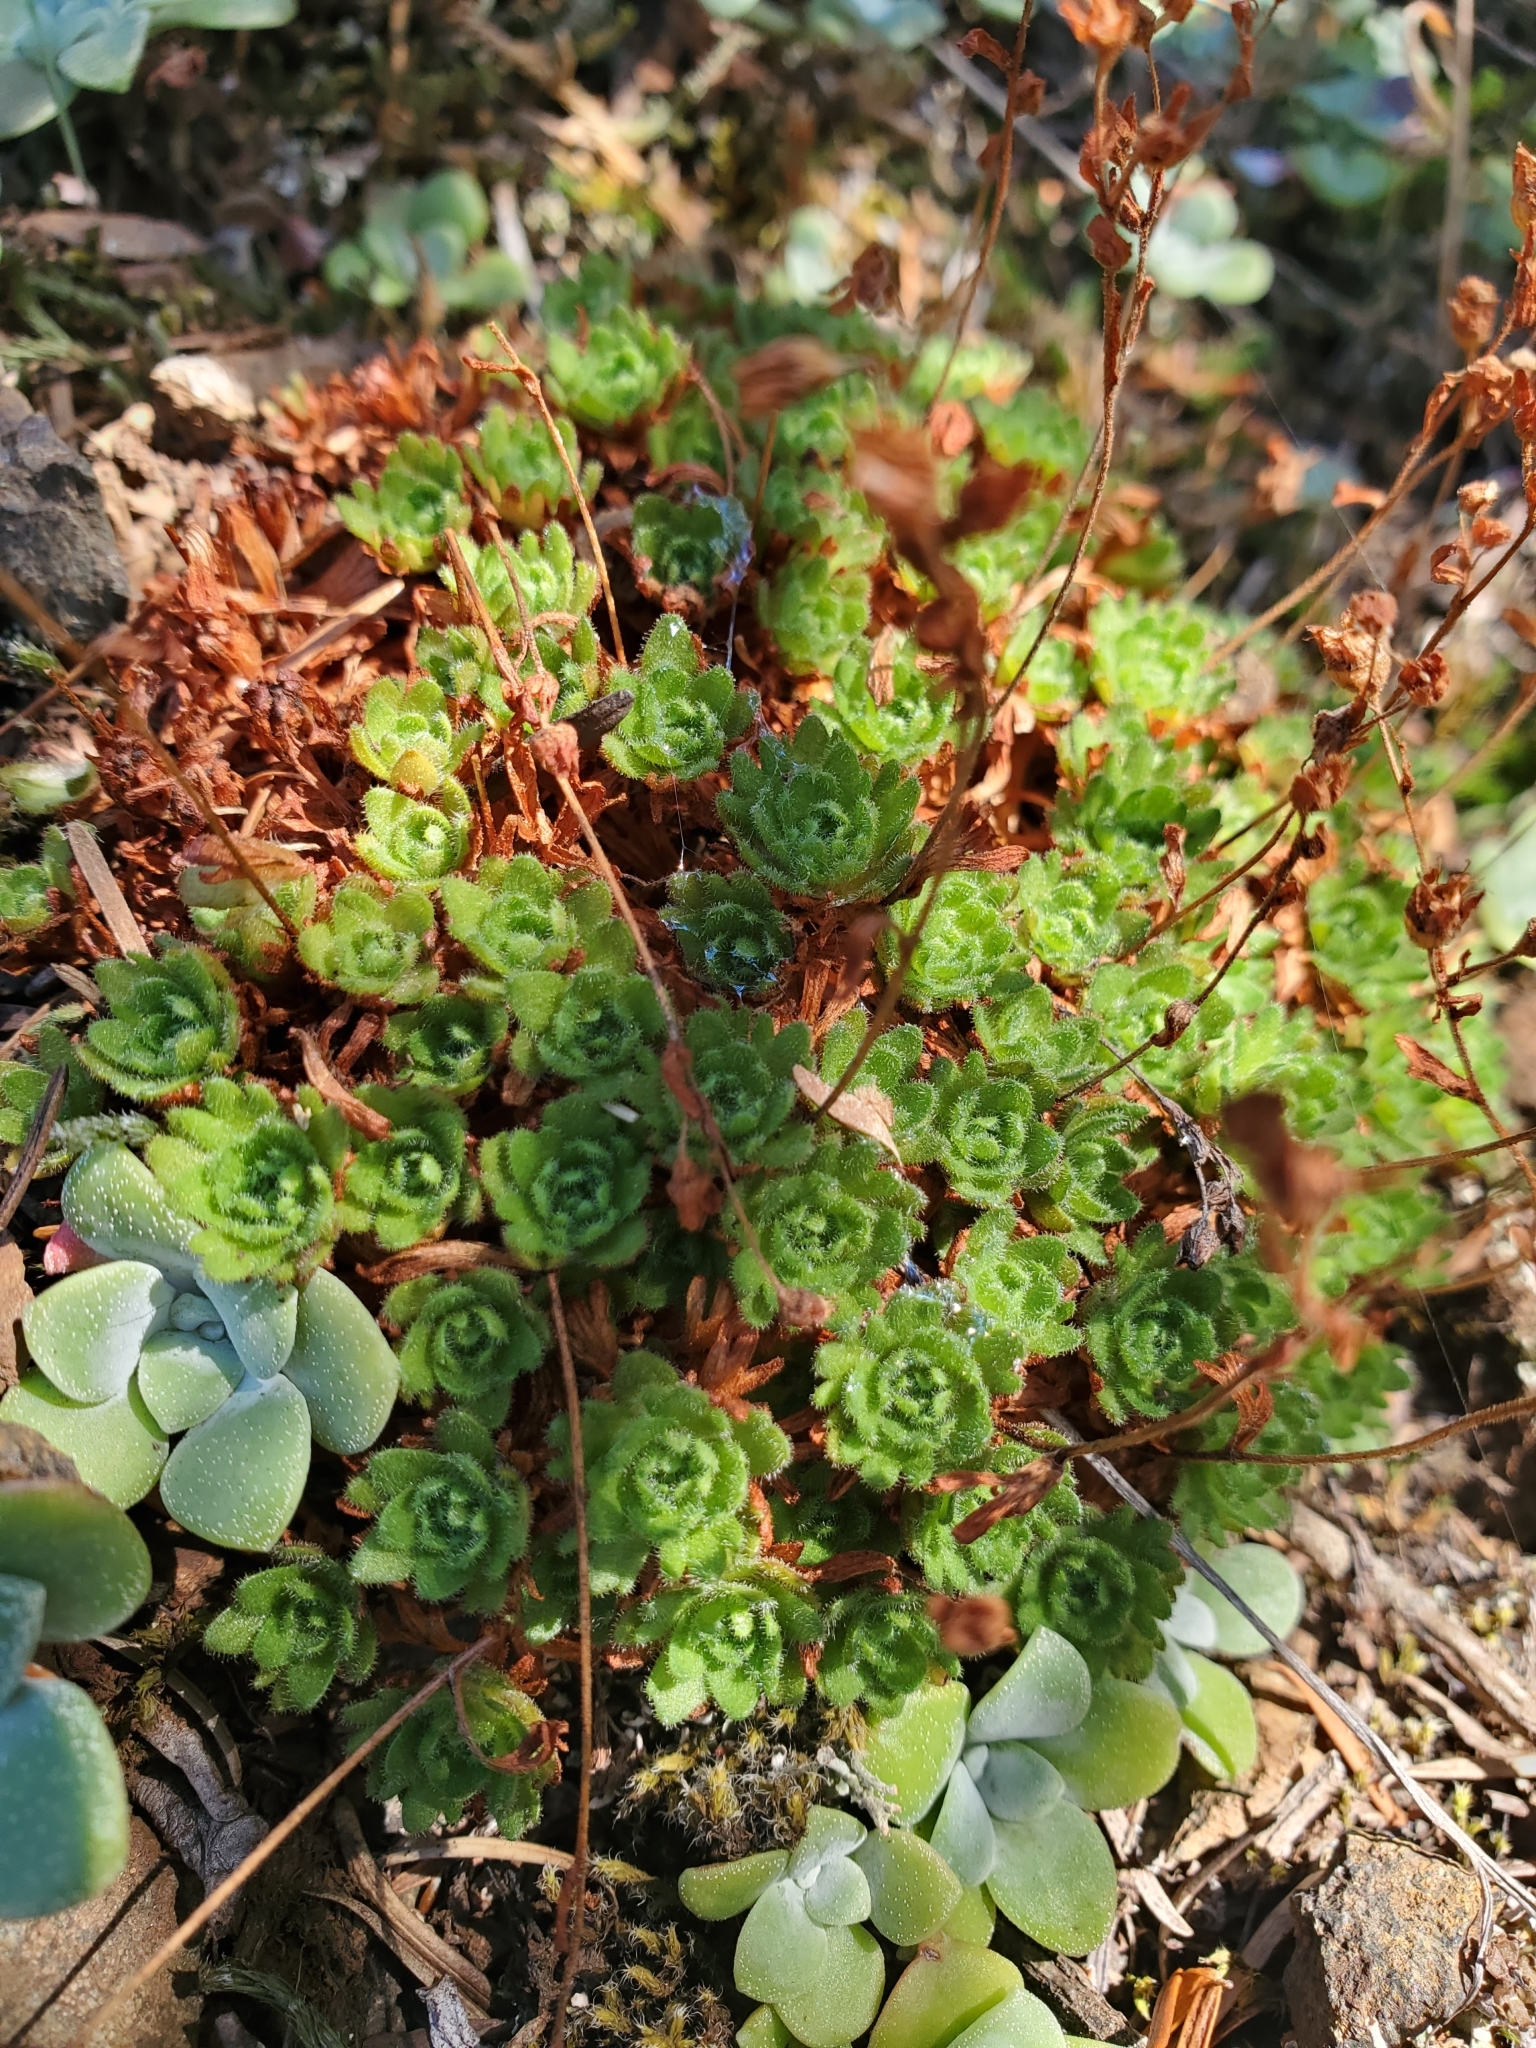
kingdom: Plantae
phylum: Tracheophyta
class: Magnoliopsida
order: Saxifragales
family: Saxifragaceae
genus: Saxifraga
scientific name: Saxifraga cespitosa
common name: Tufted saxifrage
